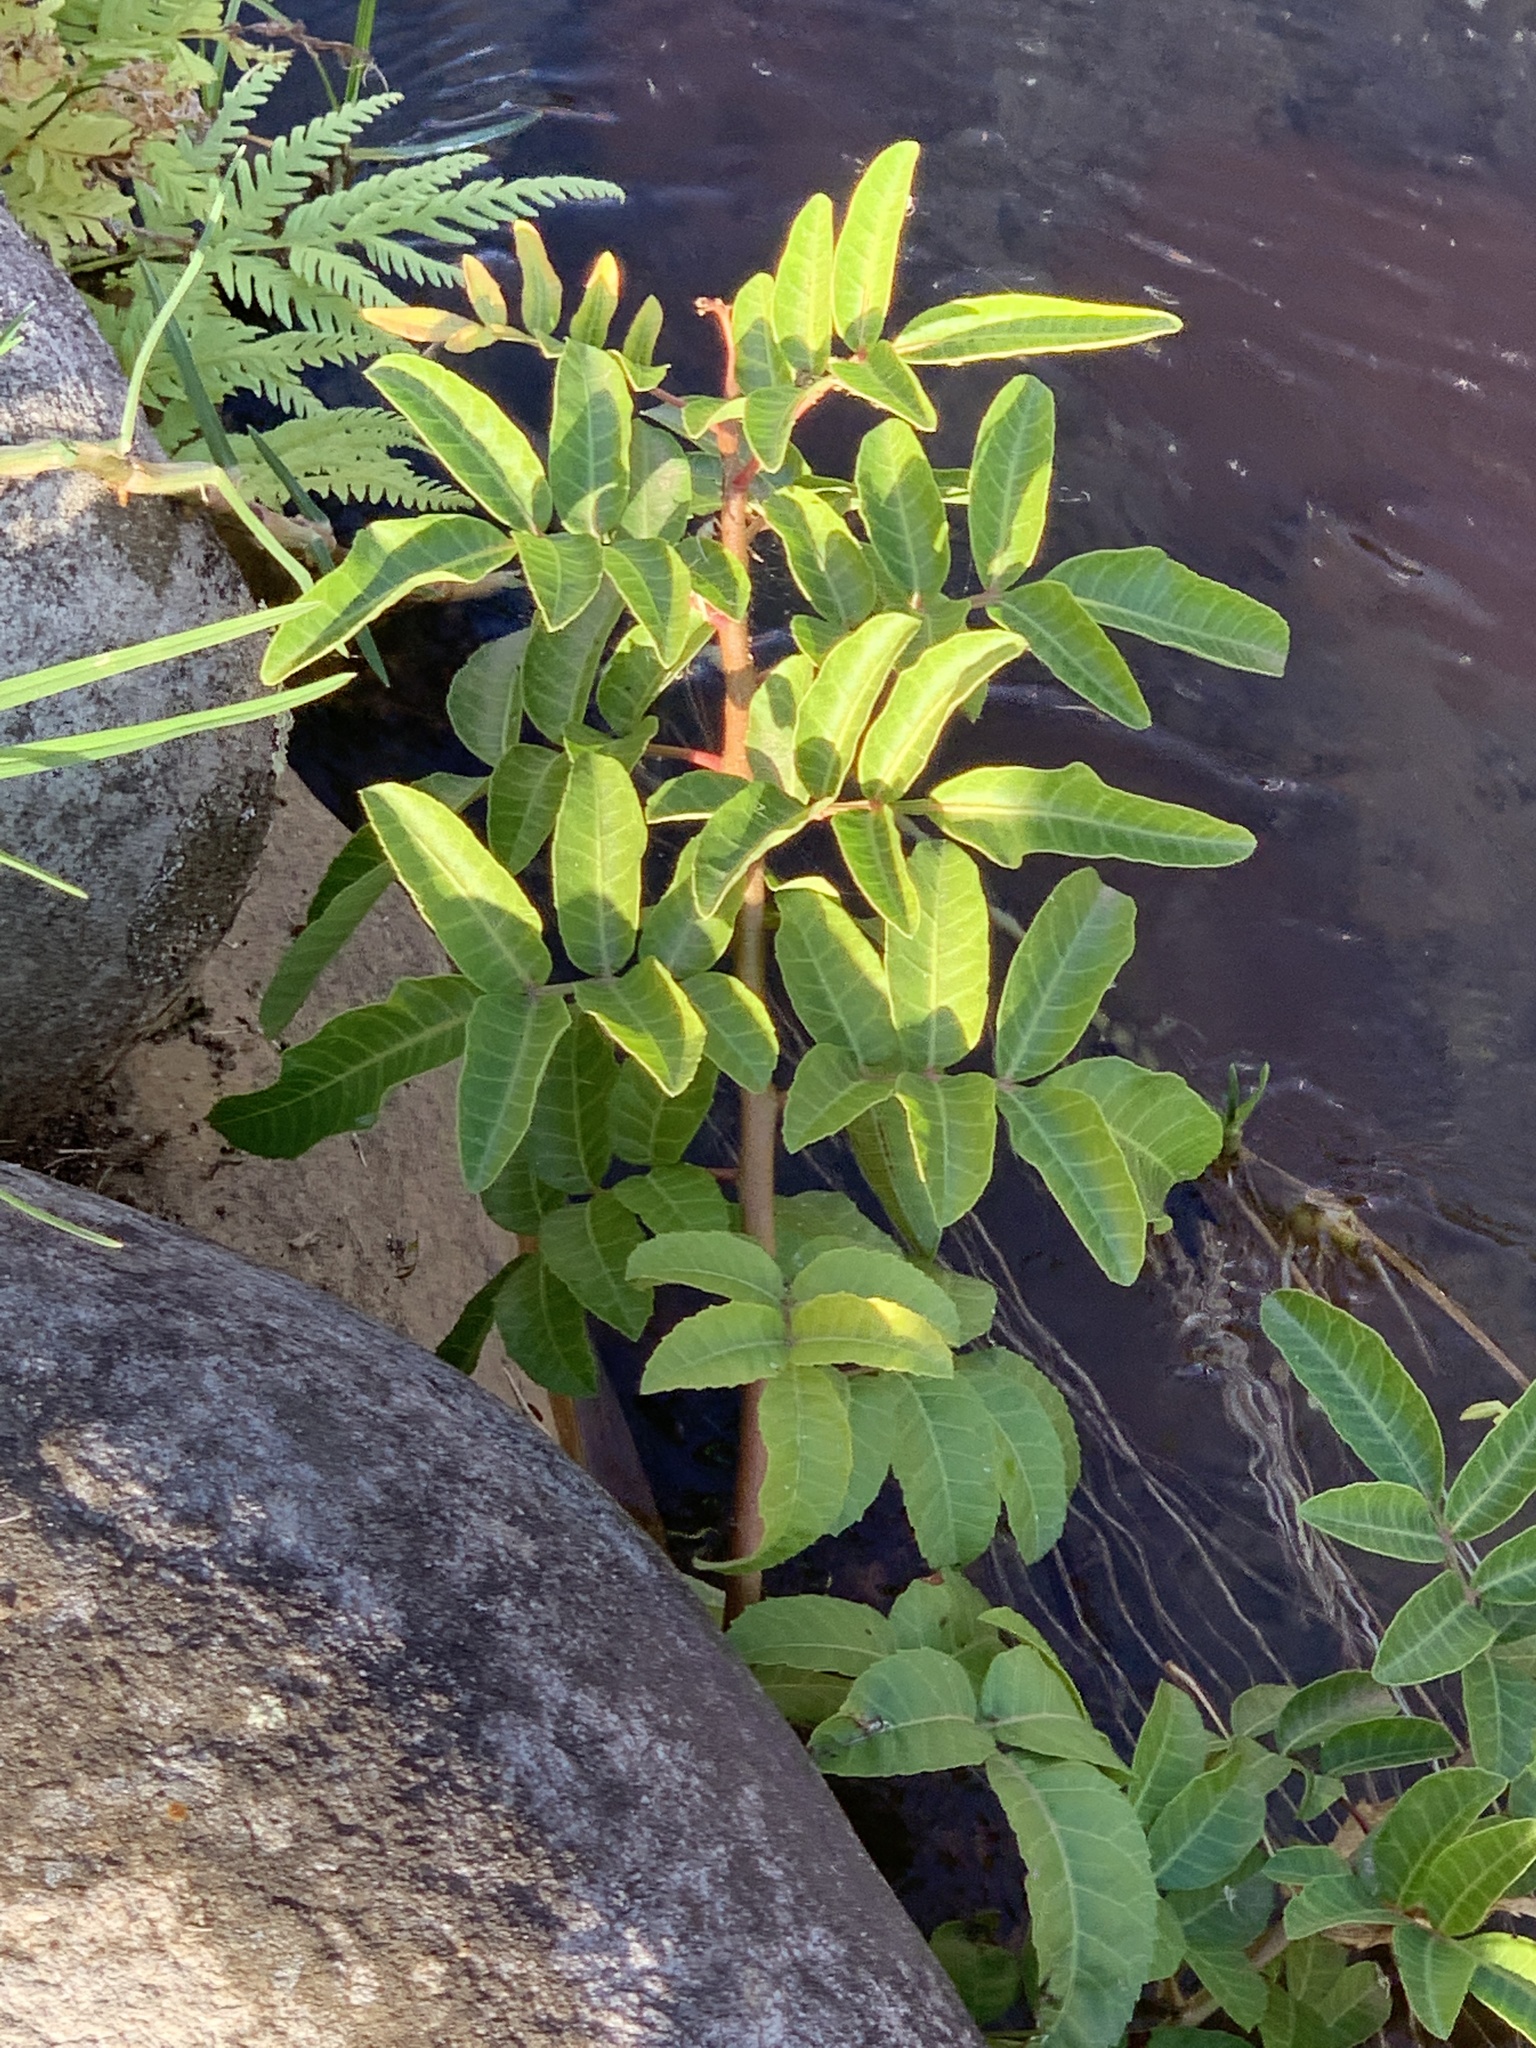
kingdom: Plantae
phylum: Tracheophyta
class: Magnoliopsida
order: Sapindales
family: Anacardiaceae
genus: Schinus
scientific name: Schinus terebinthifolia
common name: Brazilian peppertree
